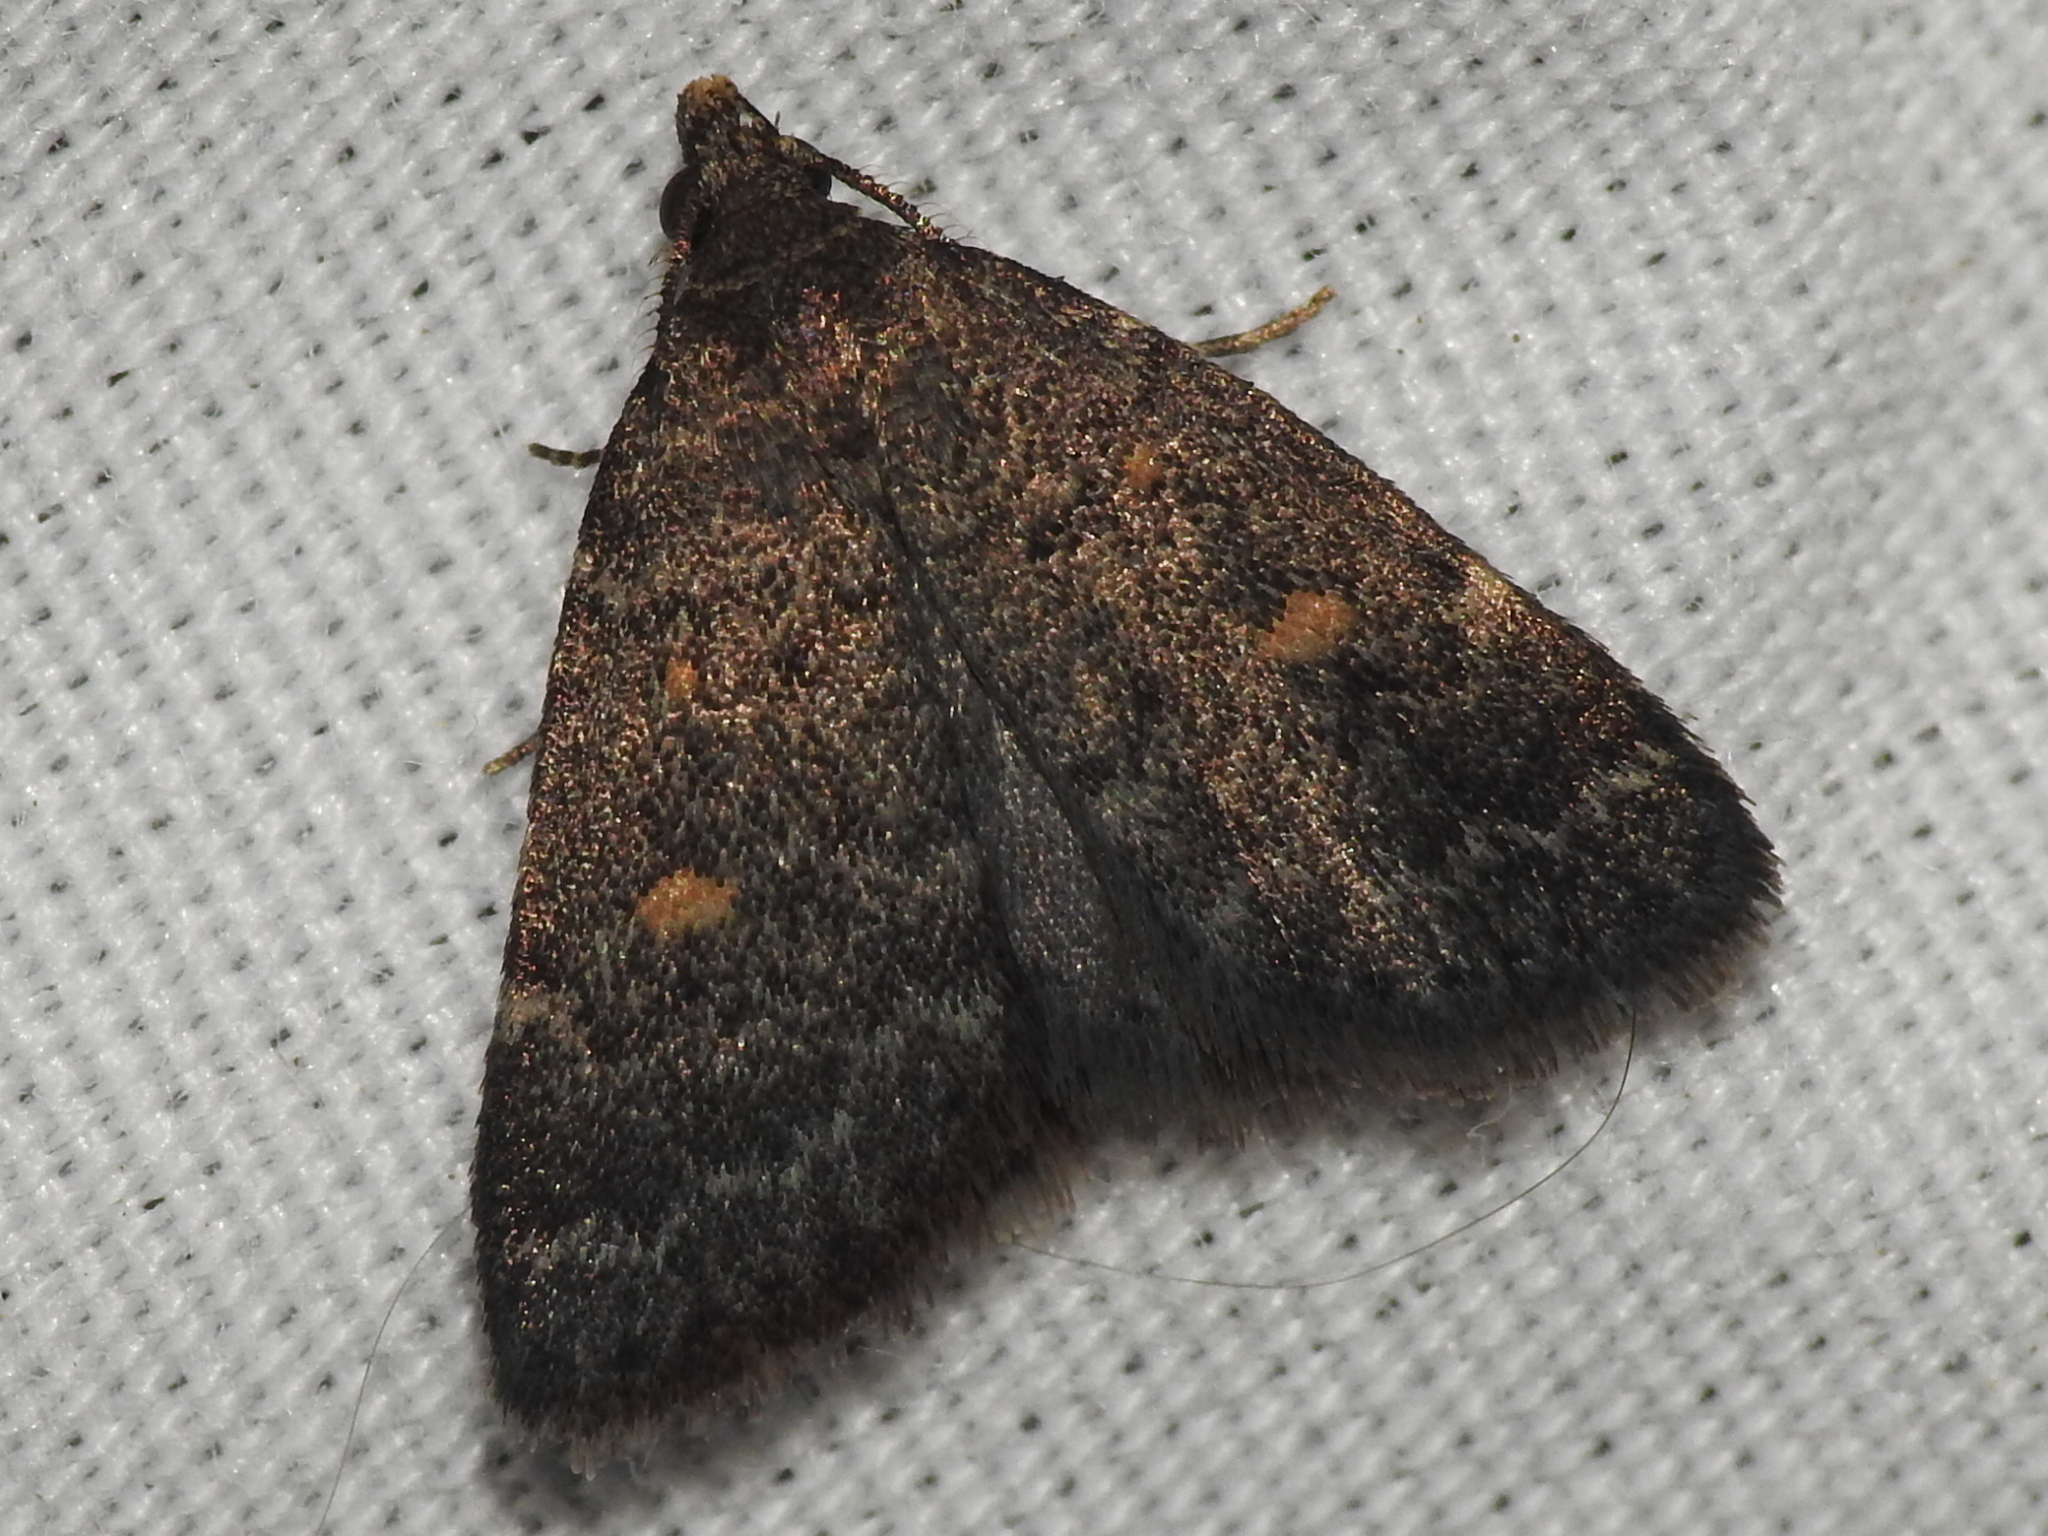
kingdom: Animalia
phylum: Arthropoda
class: Insecta
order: Lepidoptera
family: Erebidae
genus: Idia
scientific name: Idia diminuendis
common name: Orange-spotted idia moth
